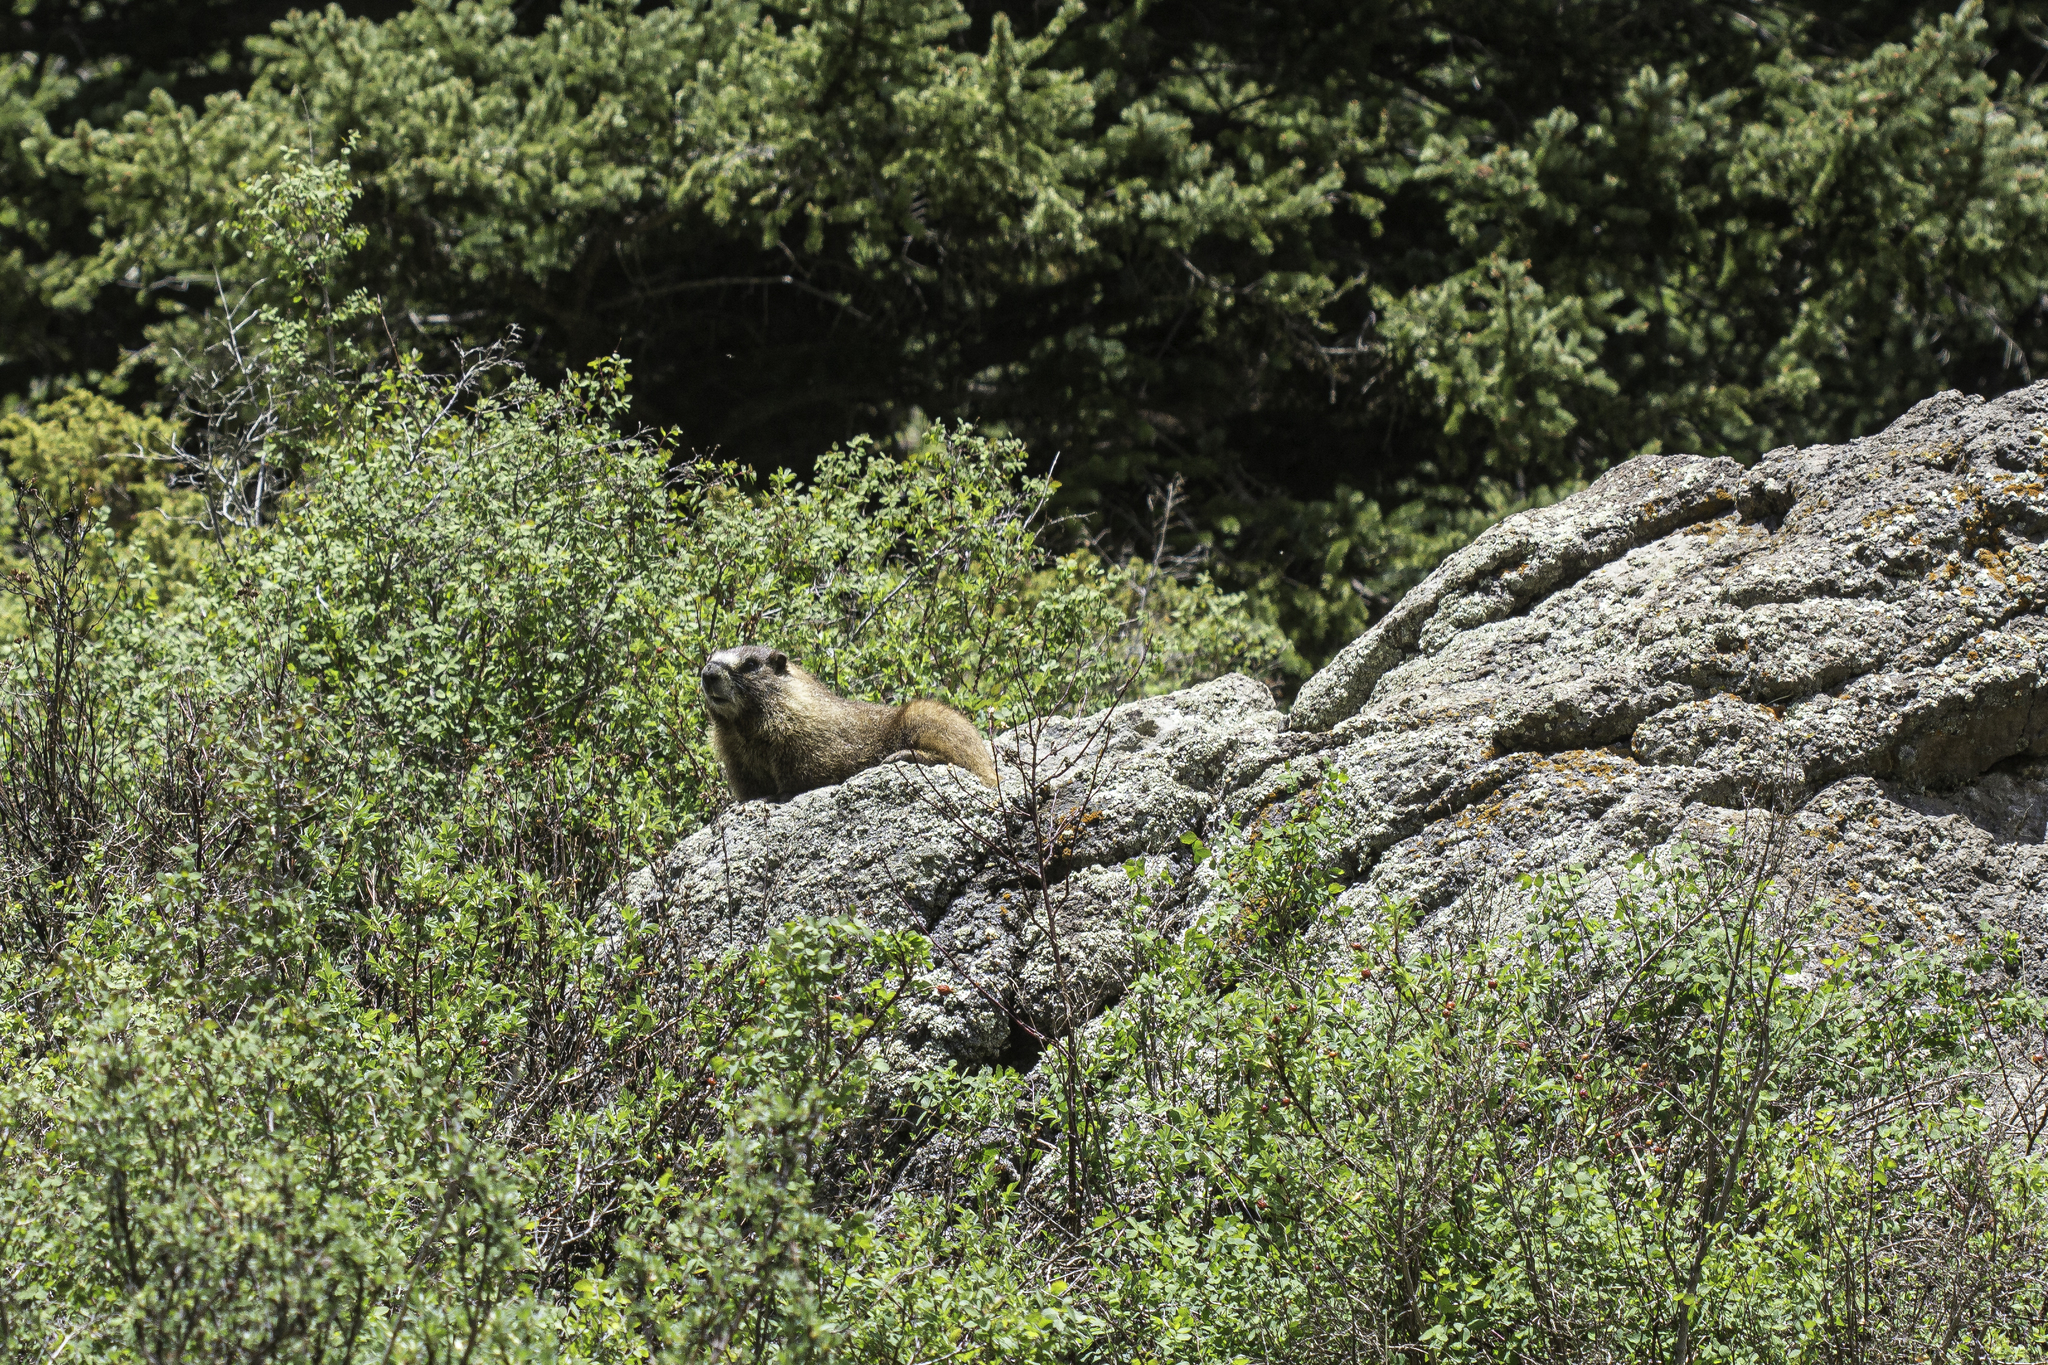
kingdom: Animalia
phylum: Chordata
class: Mammalia
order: Rodentia
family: Sciuridae
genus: Marmota
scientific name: Marmota flaviventris
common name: Yellow-bellied marmot
